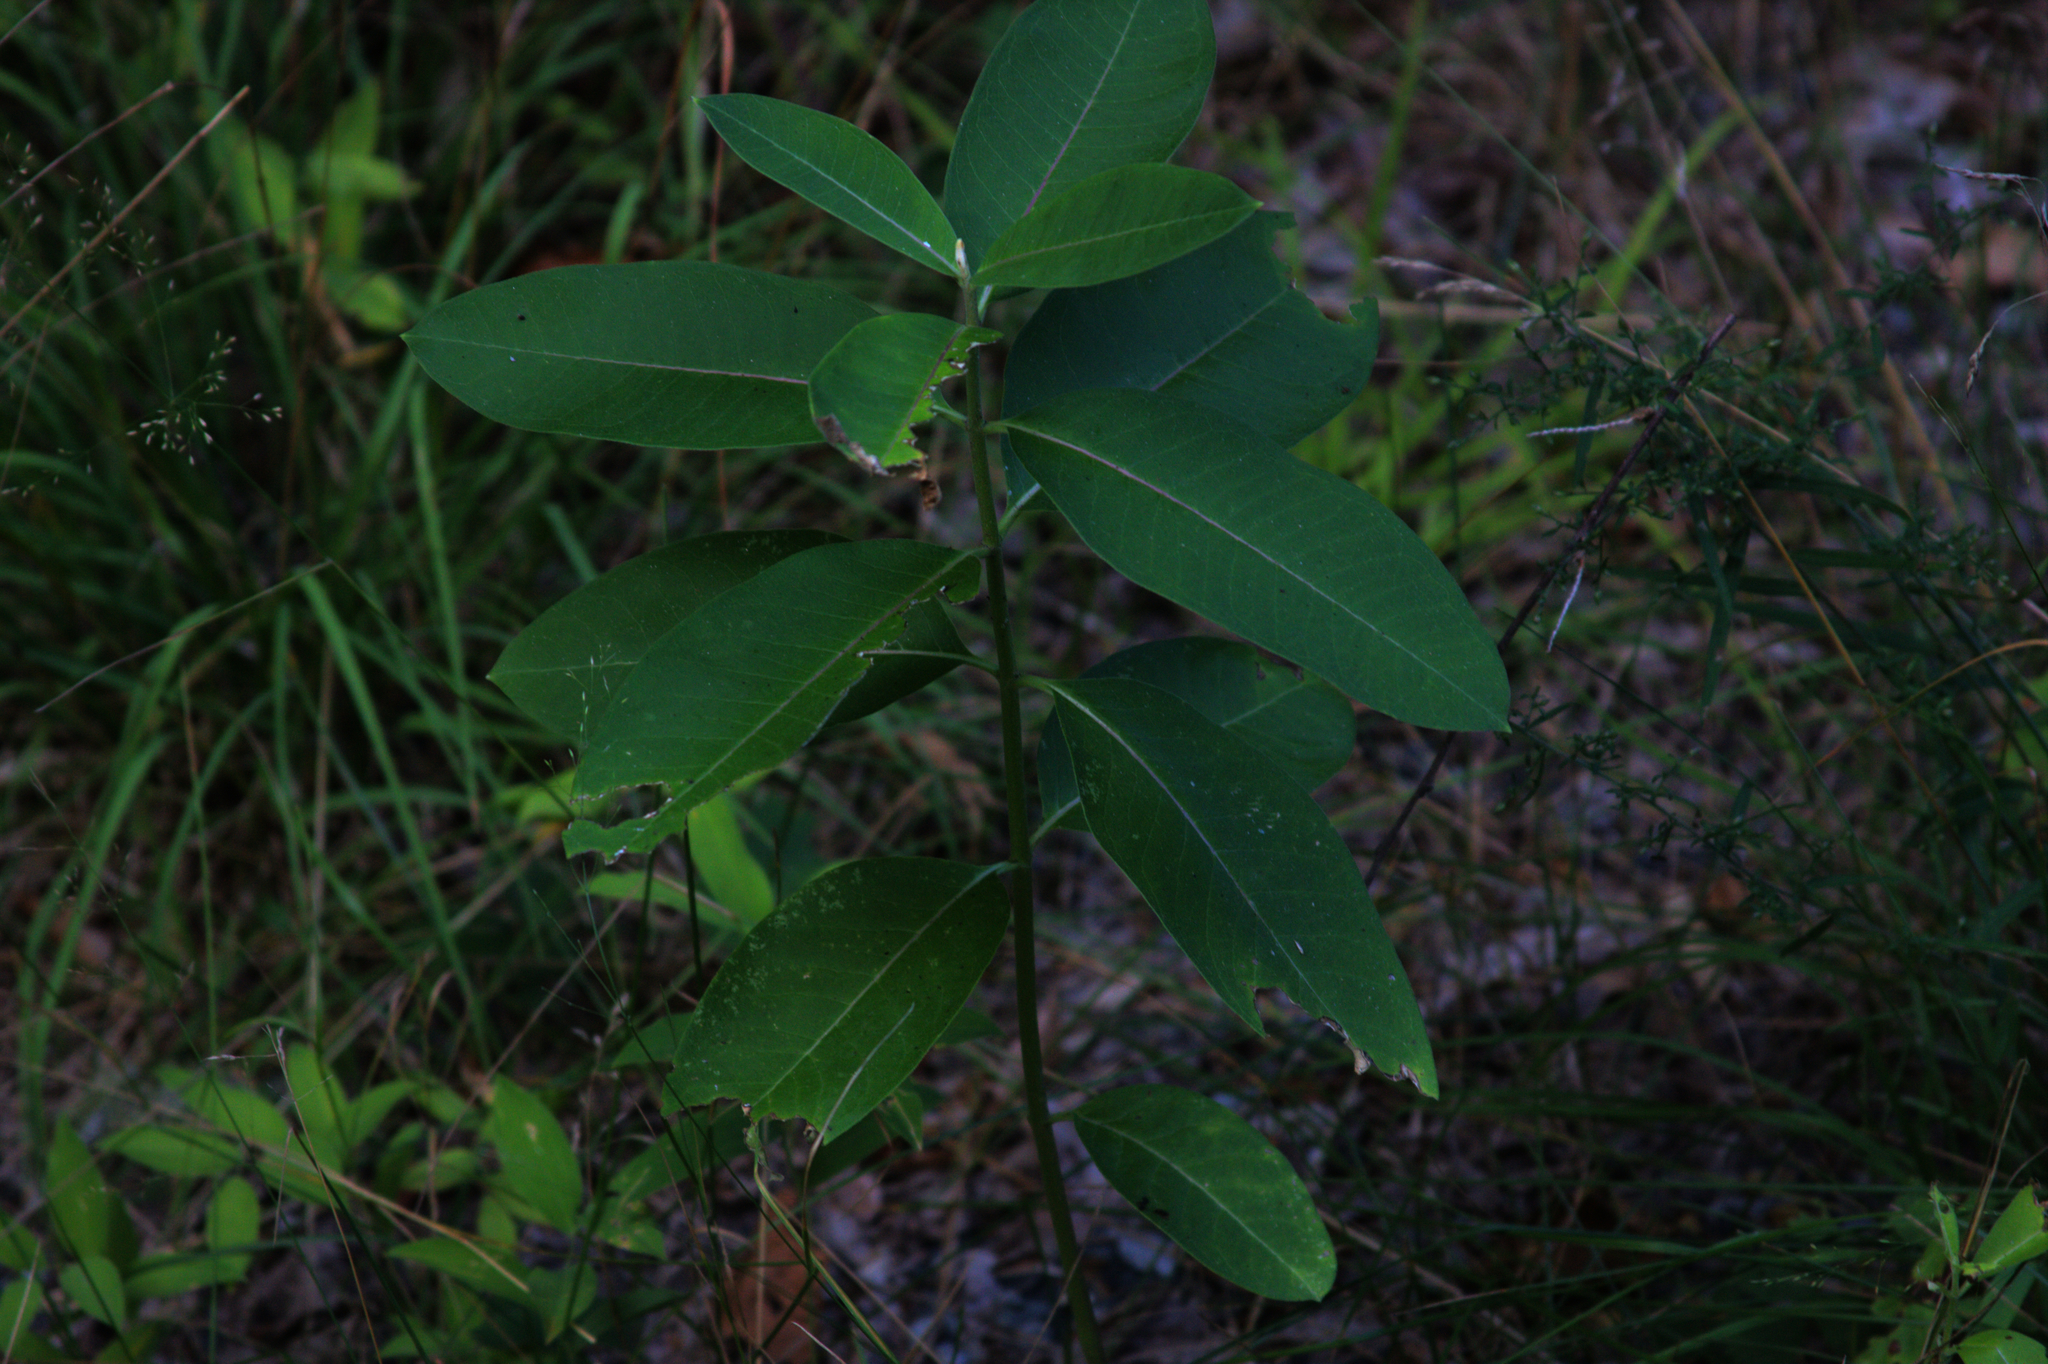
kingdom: Plantae
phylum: Tracheophyta
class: Magnoliopsida
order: Gentianales
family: Apocynaceae
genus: Asclepias
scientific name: Asclepias syriaca
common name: Common milkweed
